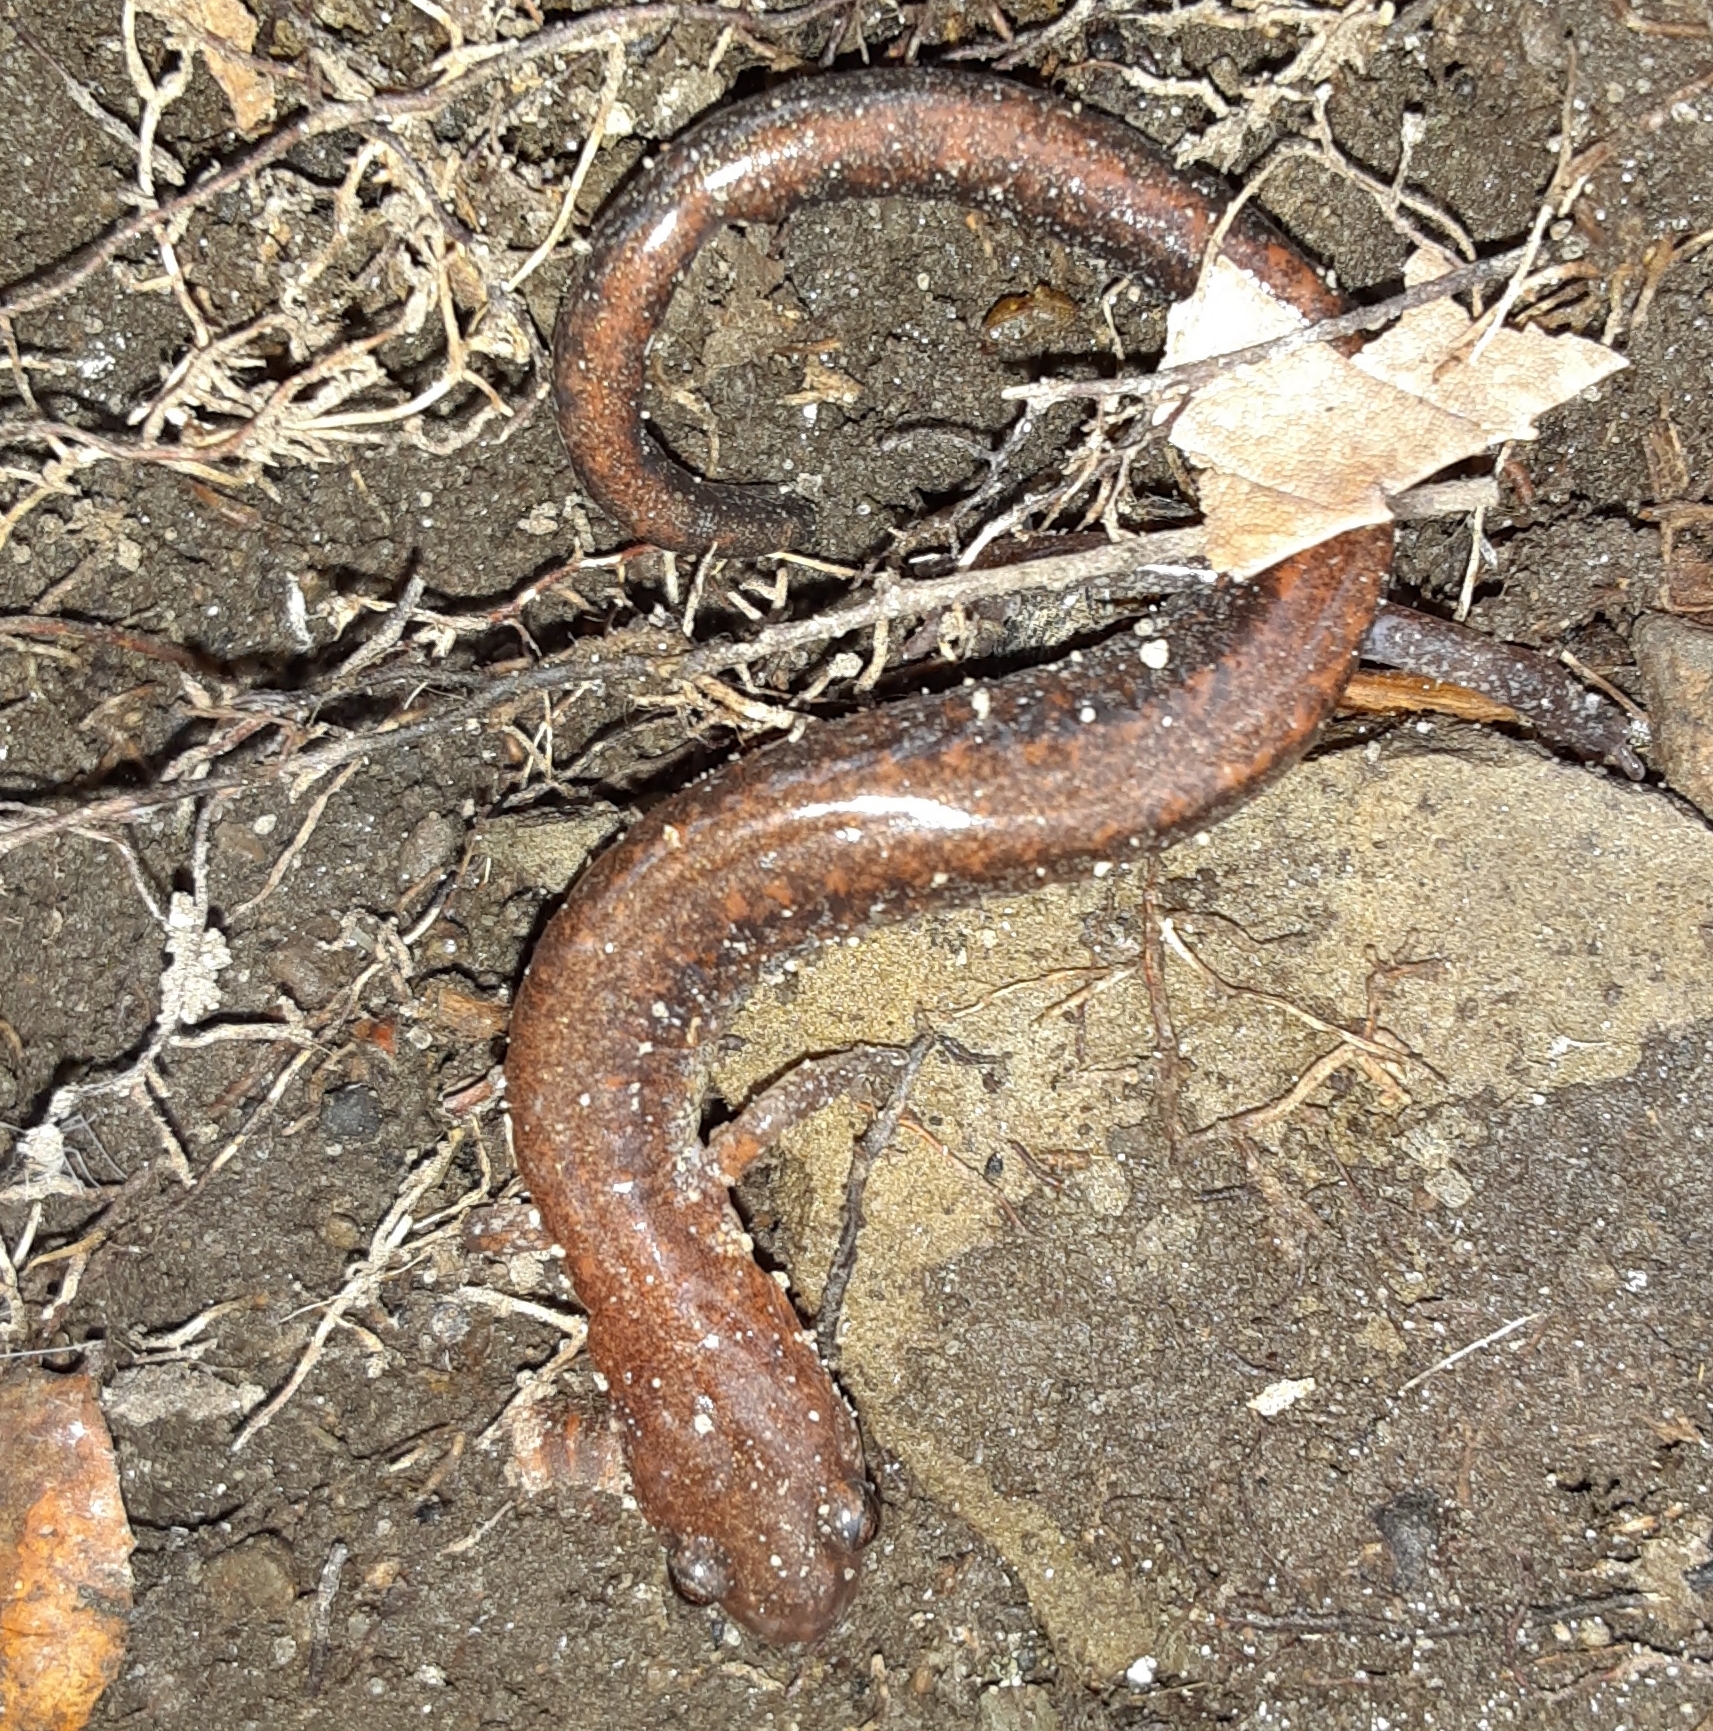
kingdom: Animalia
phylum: Chordata
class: Amphibia
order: Caudata
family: Plethodontidae
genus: Plethodon
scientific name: Plethodon cinereus
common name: Redback salamander
